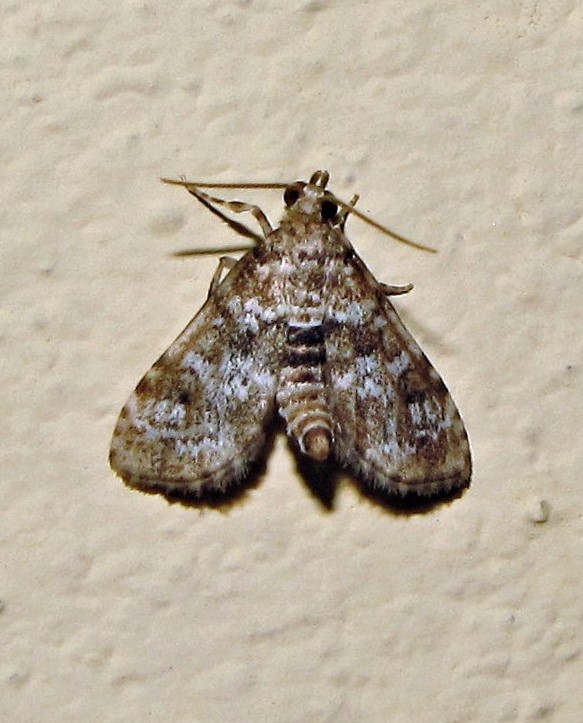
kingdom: Animalia
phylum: Arthropoda
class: Insecta
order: Lepidoptera
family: Crambidae
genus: Samea
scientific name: Samea multiplicalis
